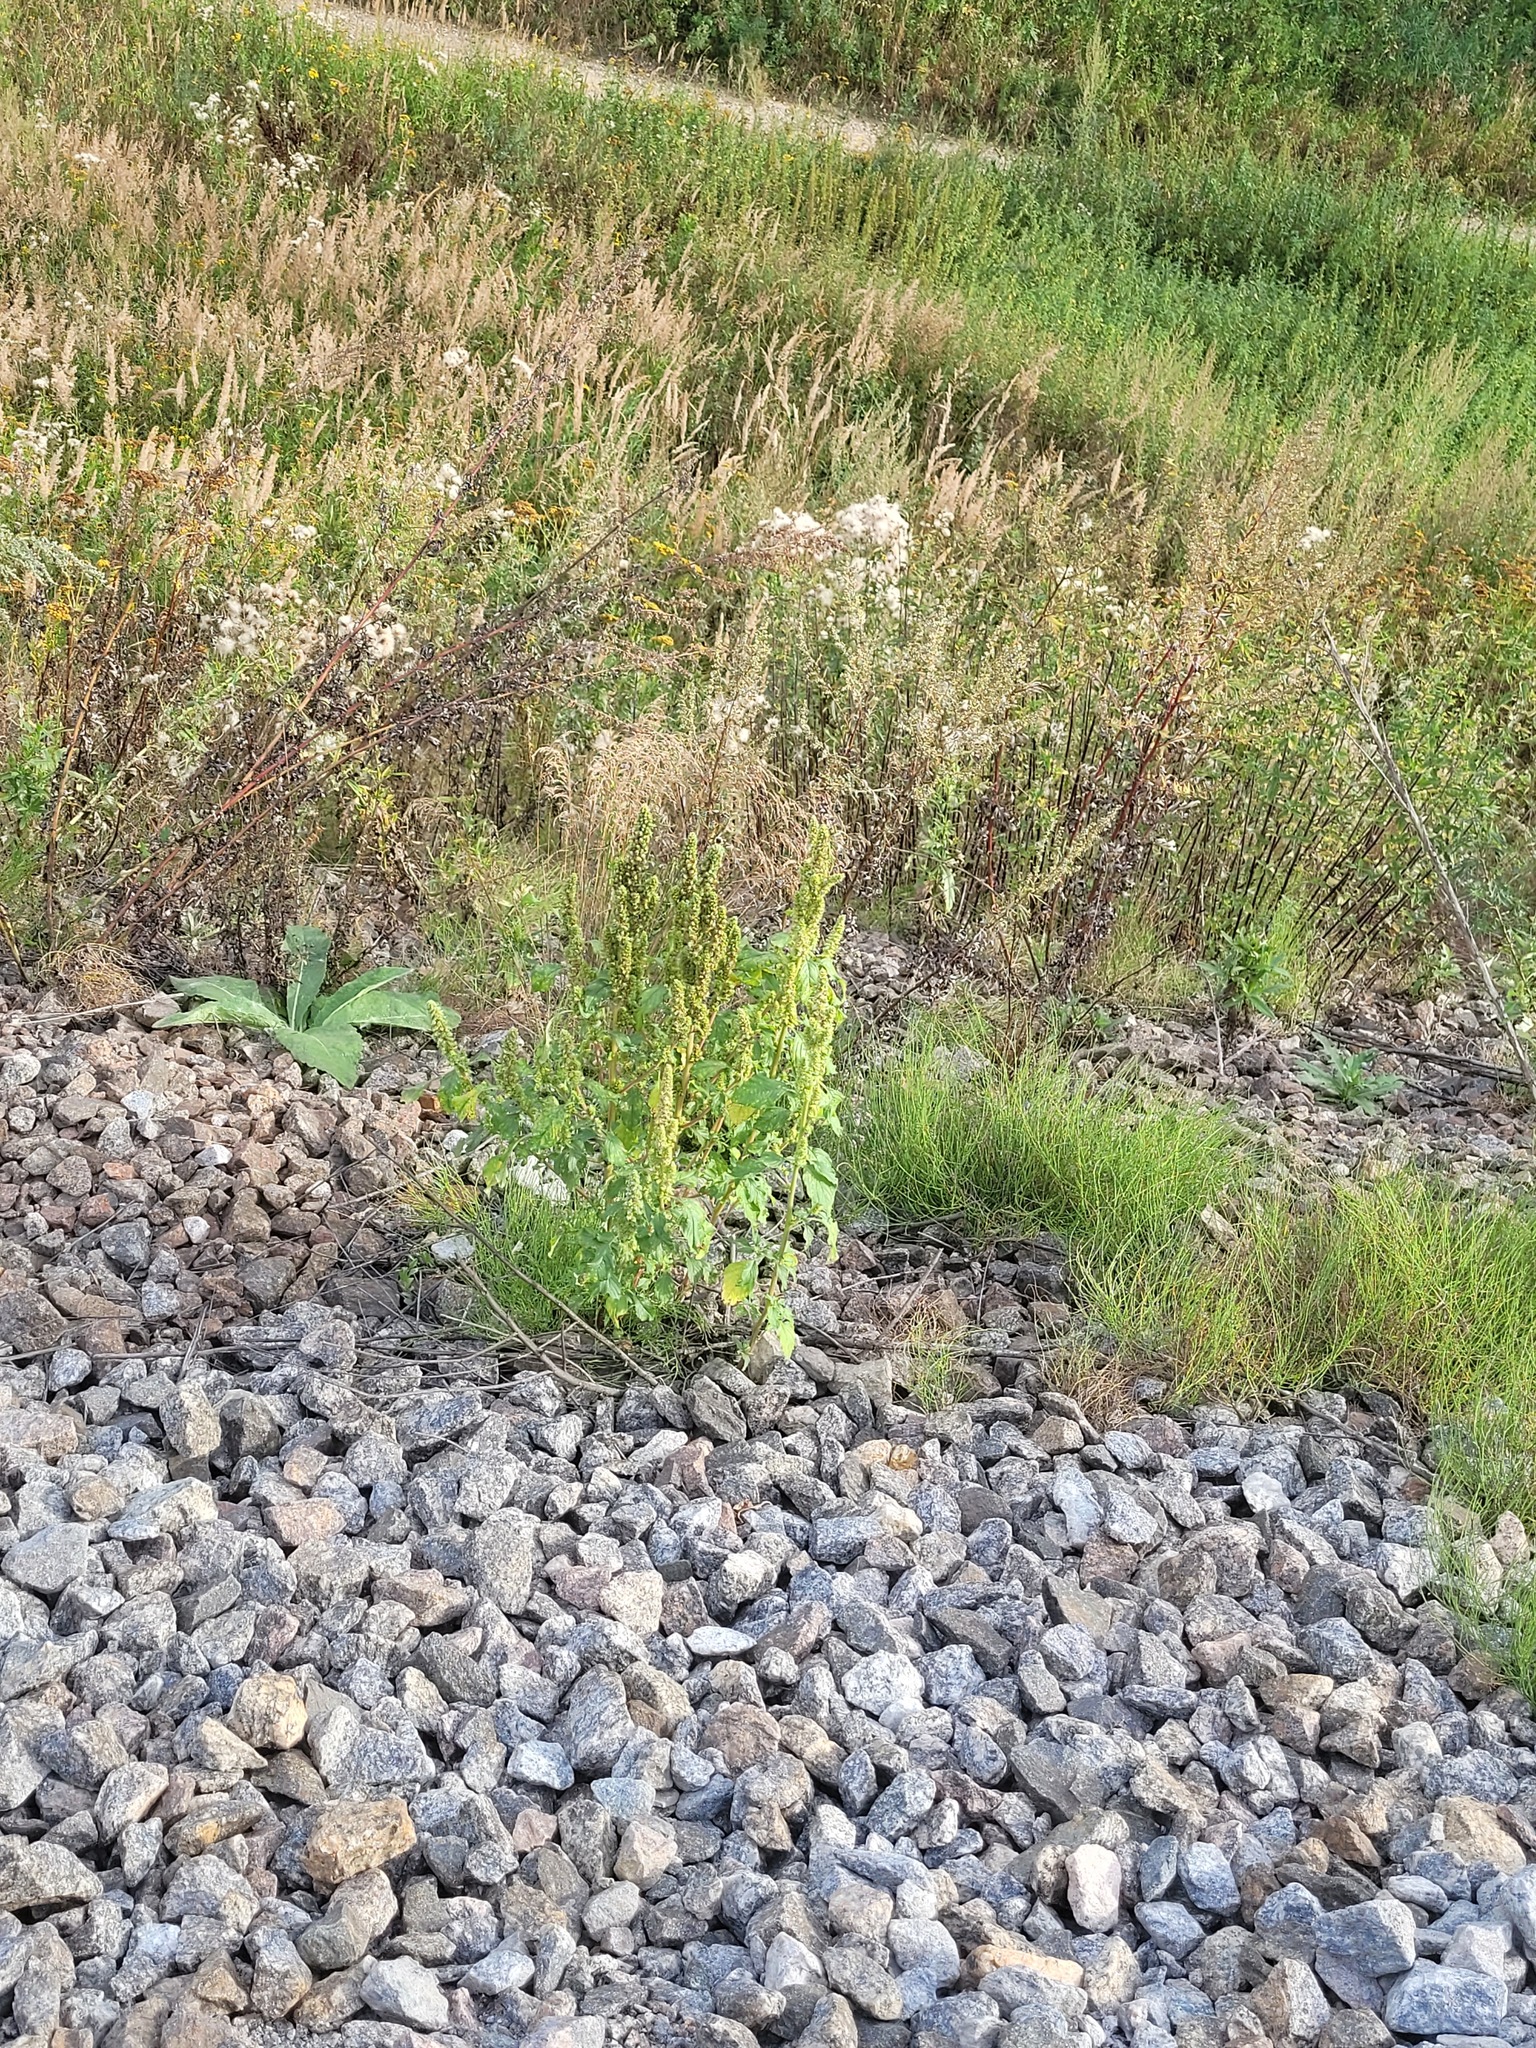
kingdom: Plantae
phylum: Tracheophyta
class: Magnoliopsida
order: Caryophyllales
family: Amaranthaceae
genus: Amaranthus
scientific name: Amaranthus retroflexus
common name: Redroot amaranth
